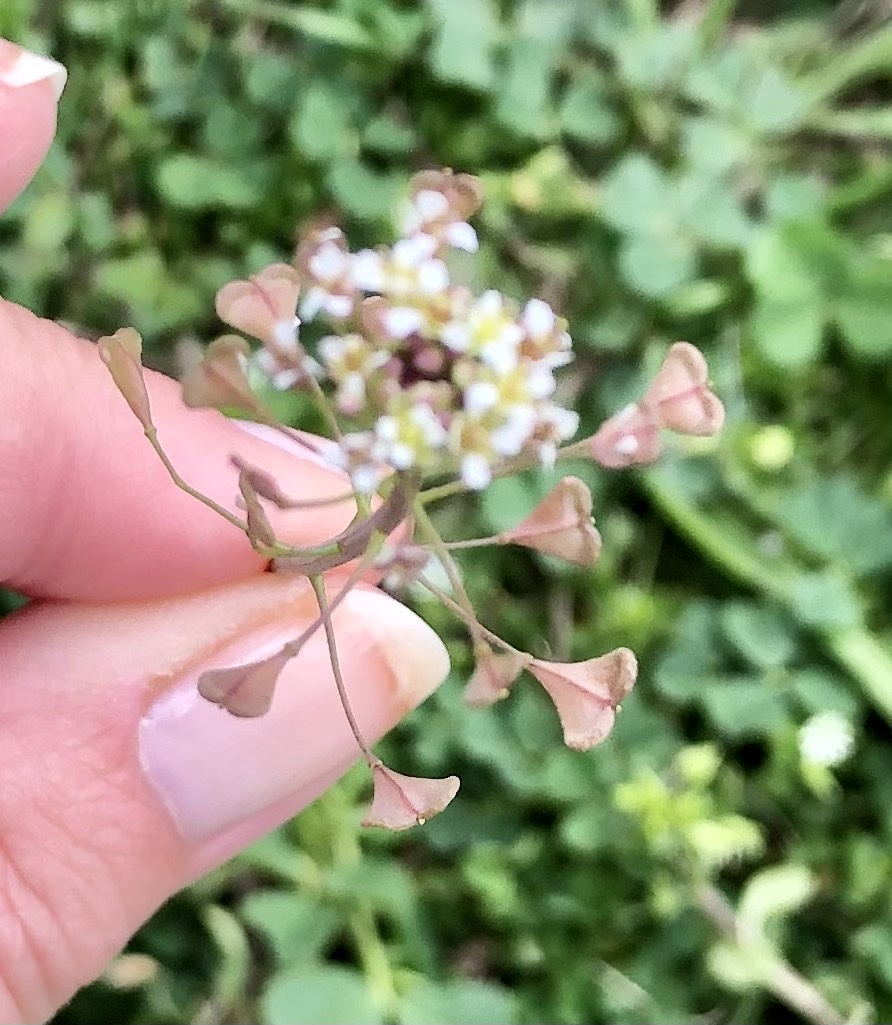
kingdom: Plantae
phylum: Tracheophyta
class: Magnoliopsida
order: Brassicales
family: Brassicaceae
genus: Capsella
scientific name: Capsella bursa-pastoris
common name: Shepherd's purse
